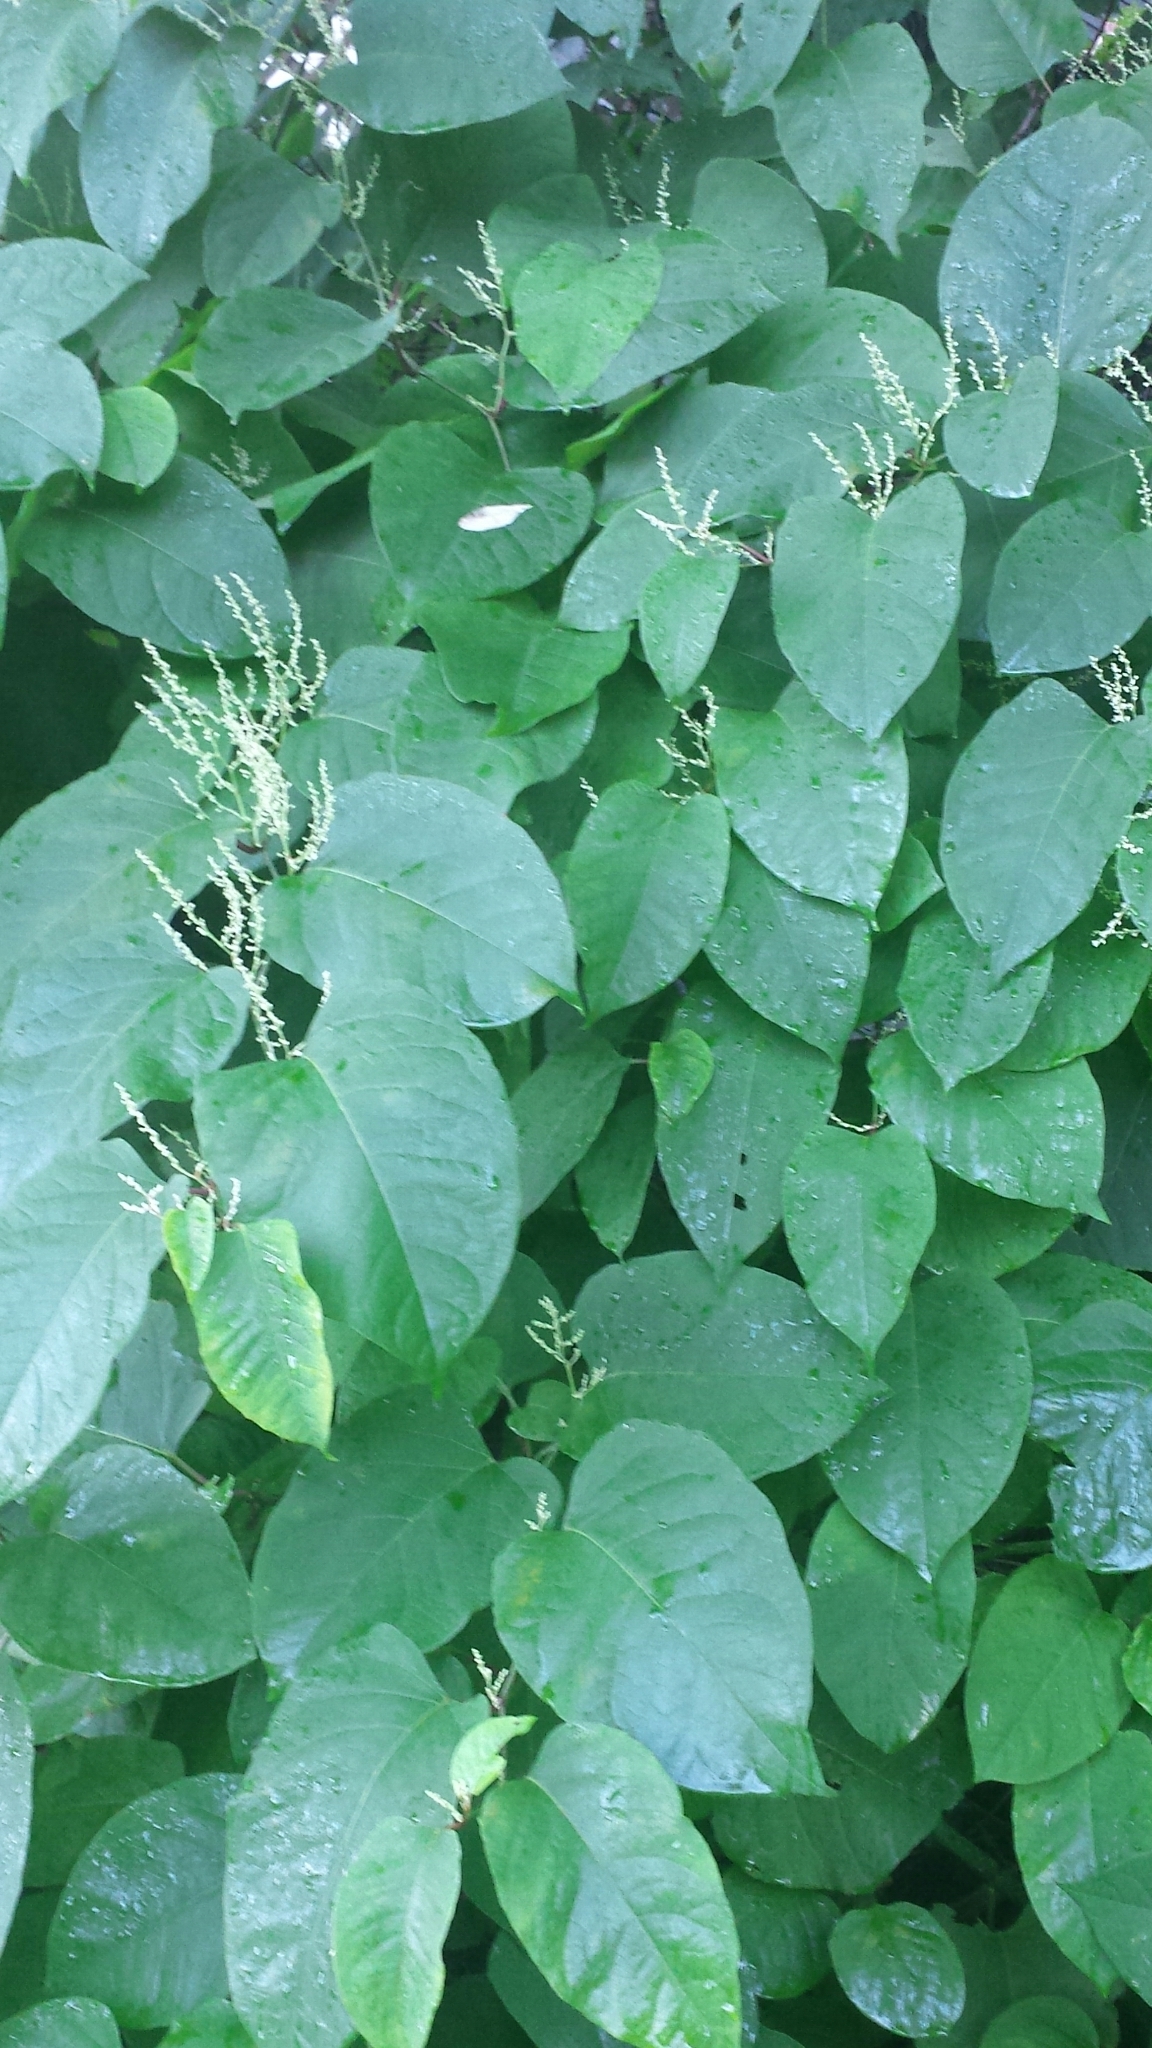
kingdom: Plantae
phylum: Tracheophyta
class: Magnoliopsida
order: Caryophyllales
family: Polygonaceae
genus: Reynoutria
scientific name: Reynoutria japonica
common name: Japanese knotweed
